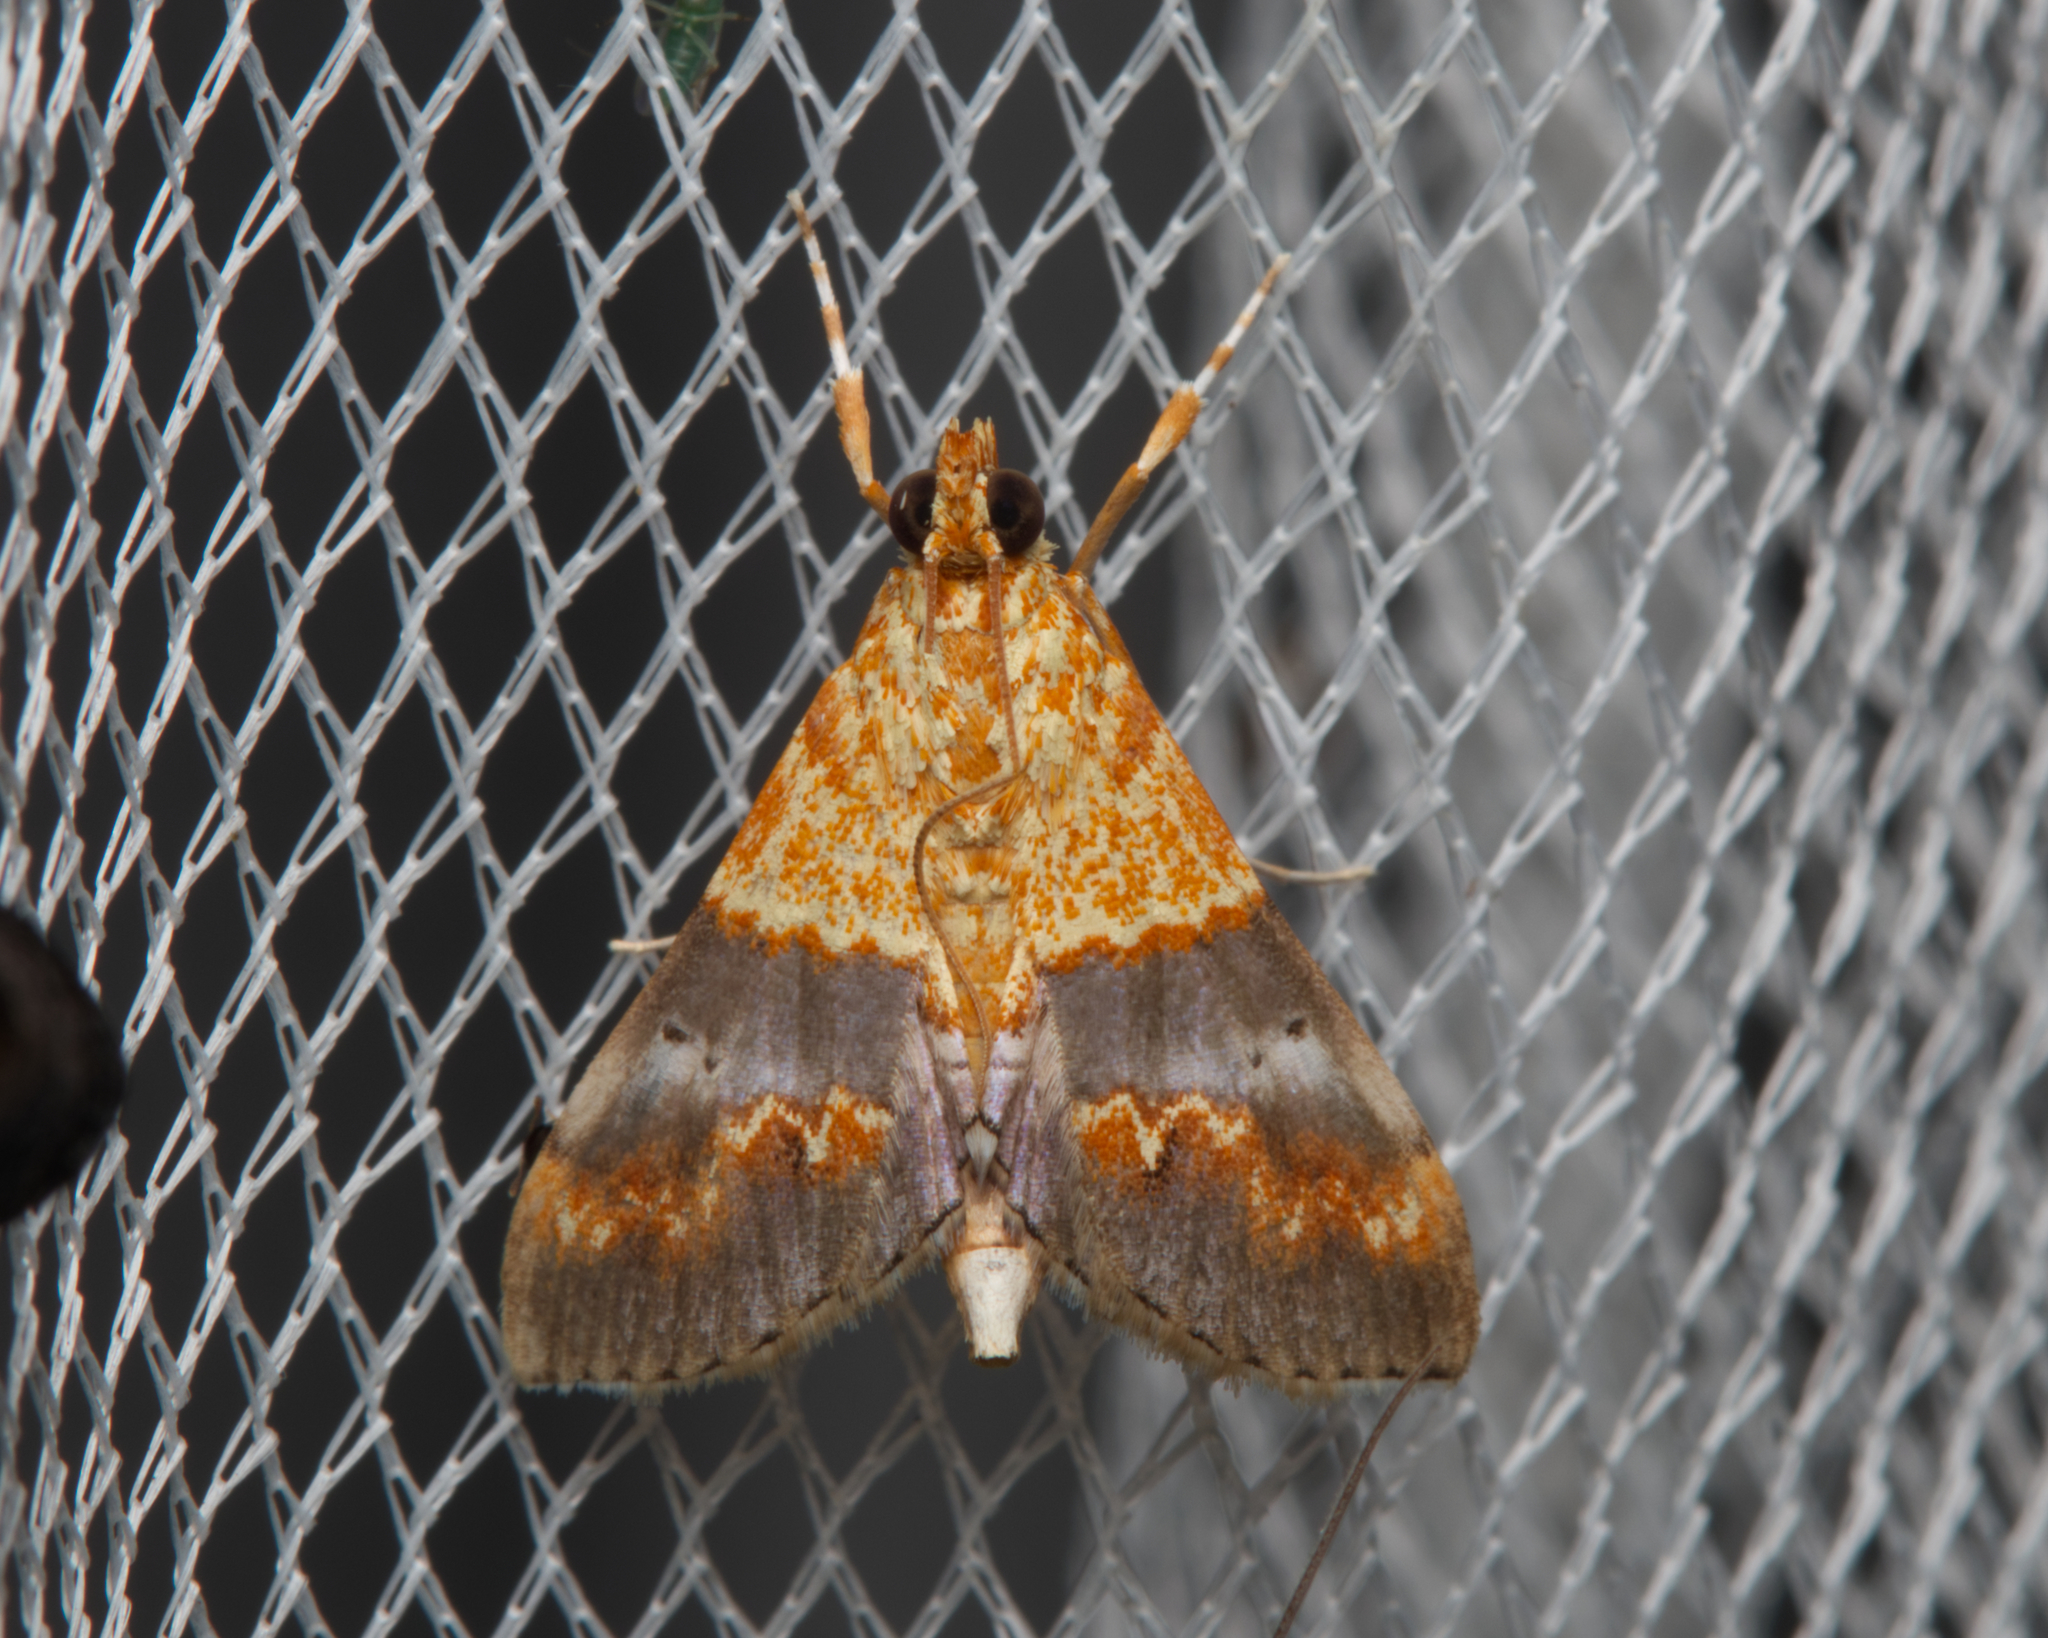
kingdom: Animalia
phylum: Arthropoda
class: Insecta
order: Lepidoptera
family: Crambidae
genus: Agrotera
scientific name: Agrotera Tetracona amathealis
